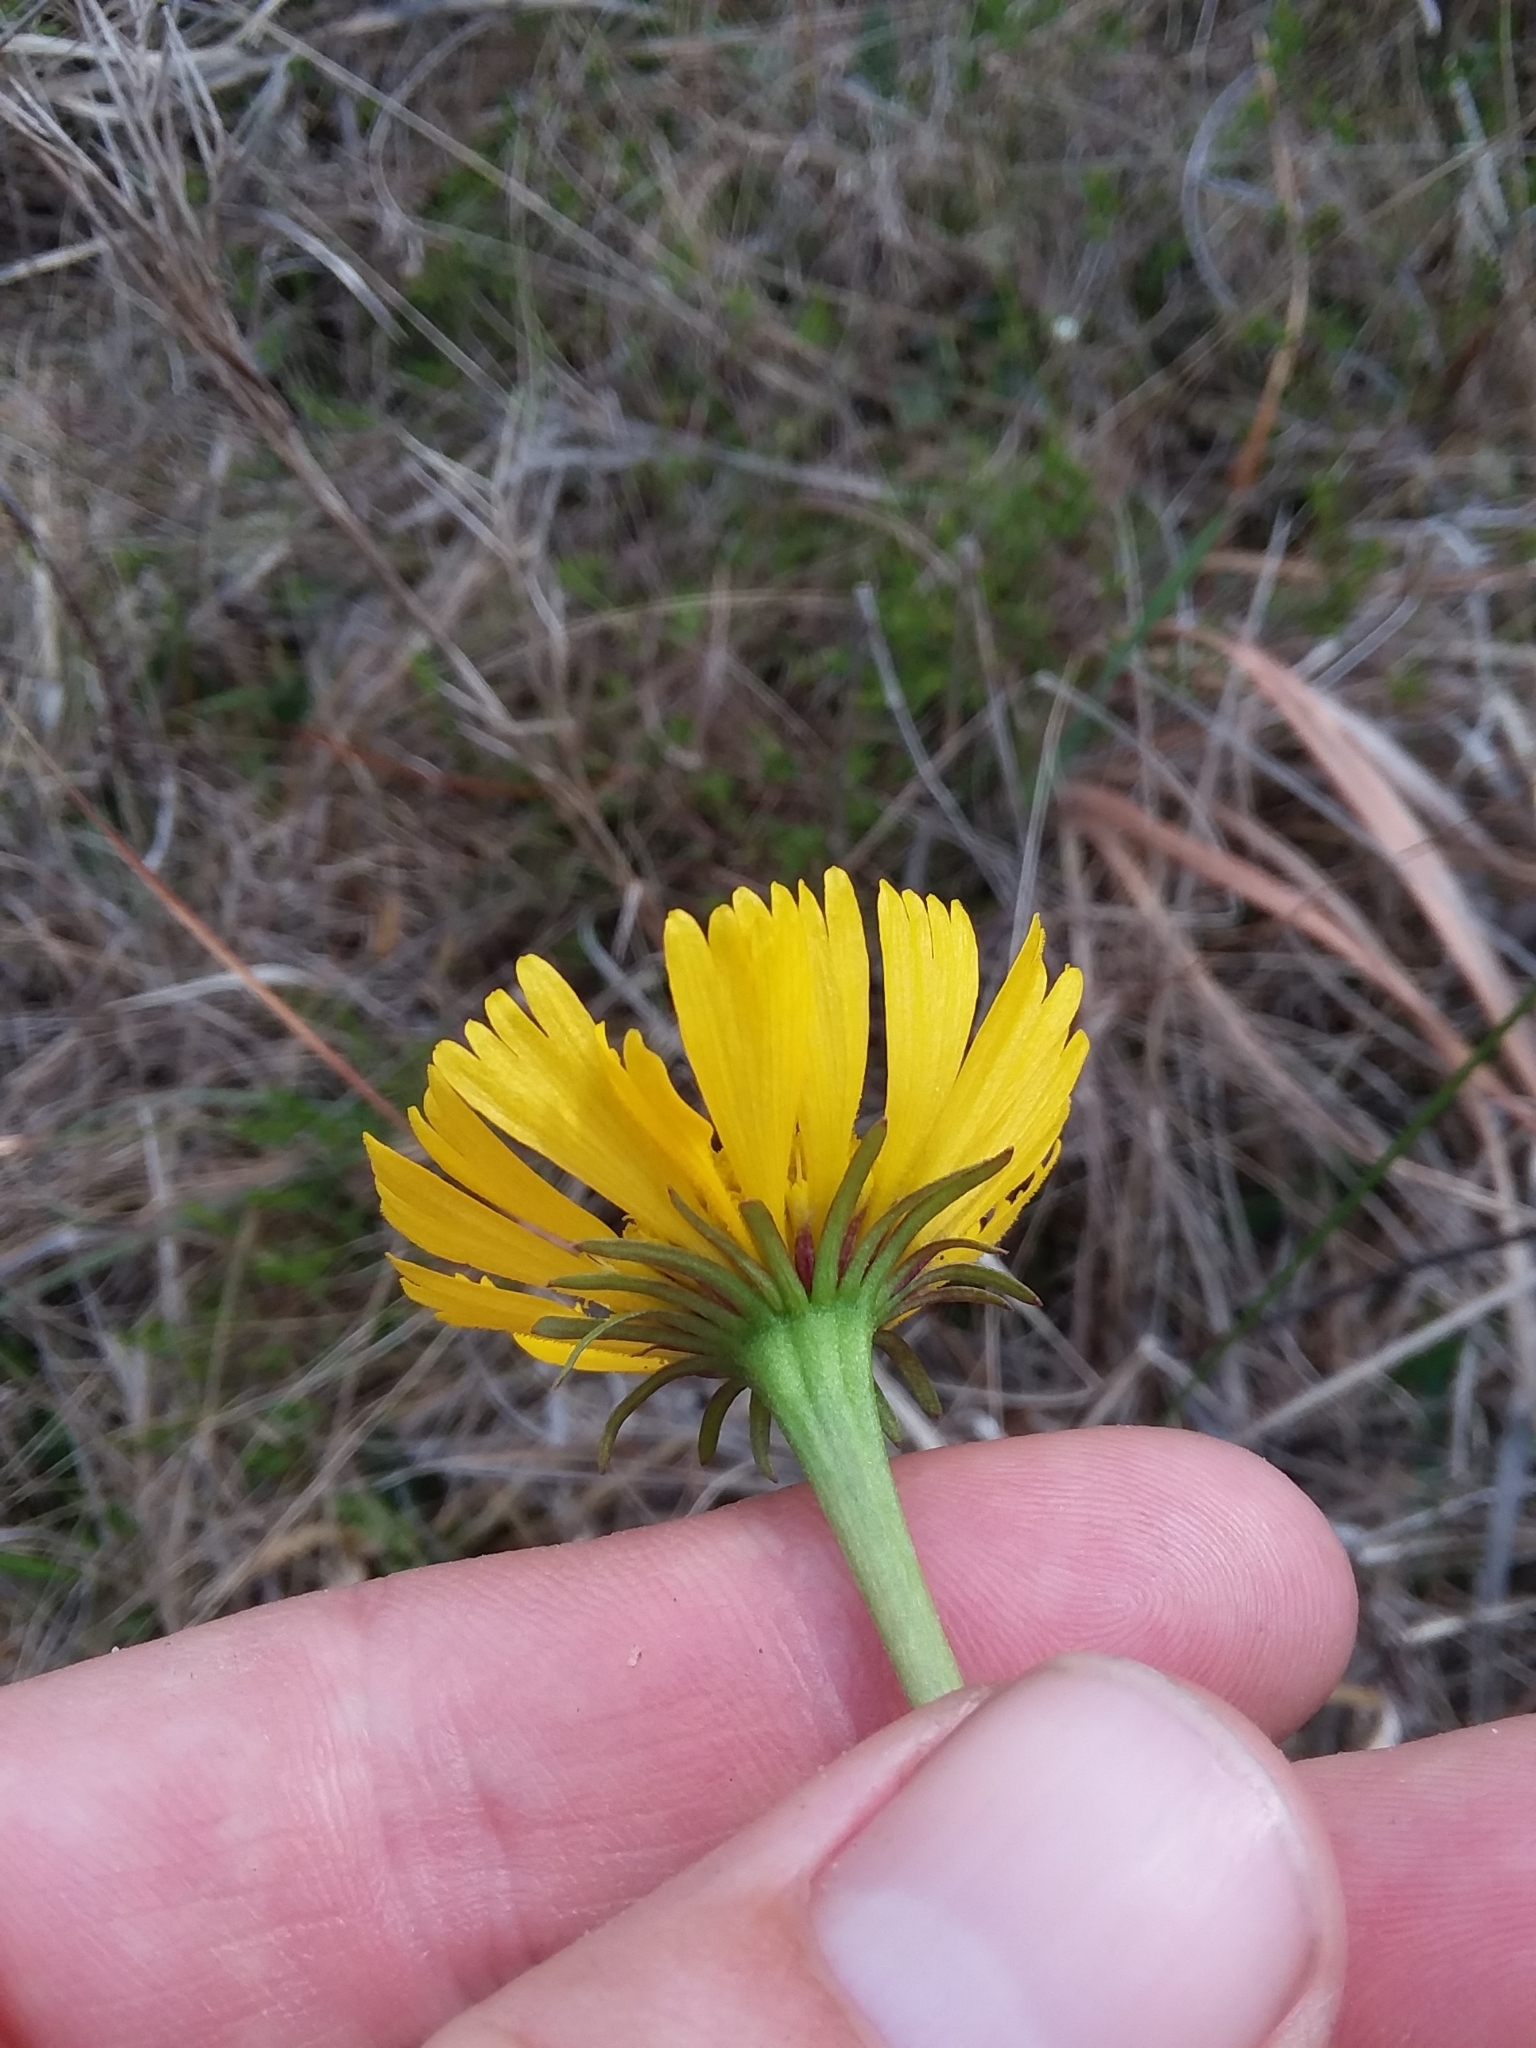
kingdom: Plantae
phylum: Tracheophyta
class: Magnoliopsida
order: Asterales
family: Asteraceae
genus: Helenium
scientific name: Helenium vernale
